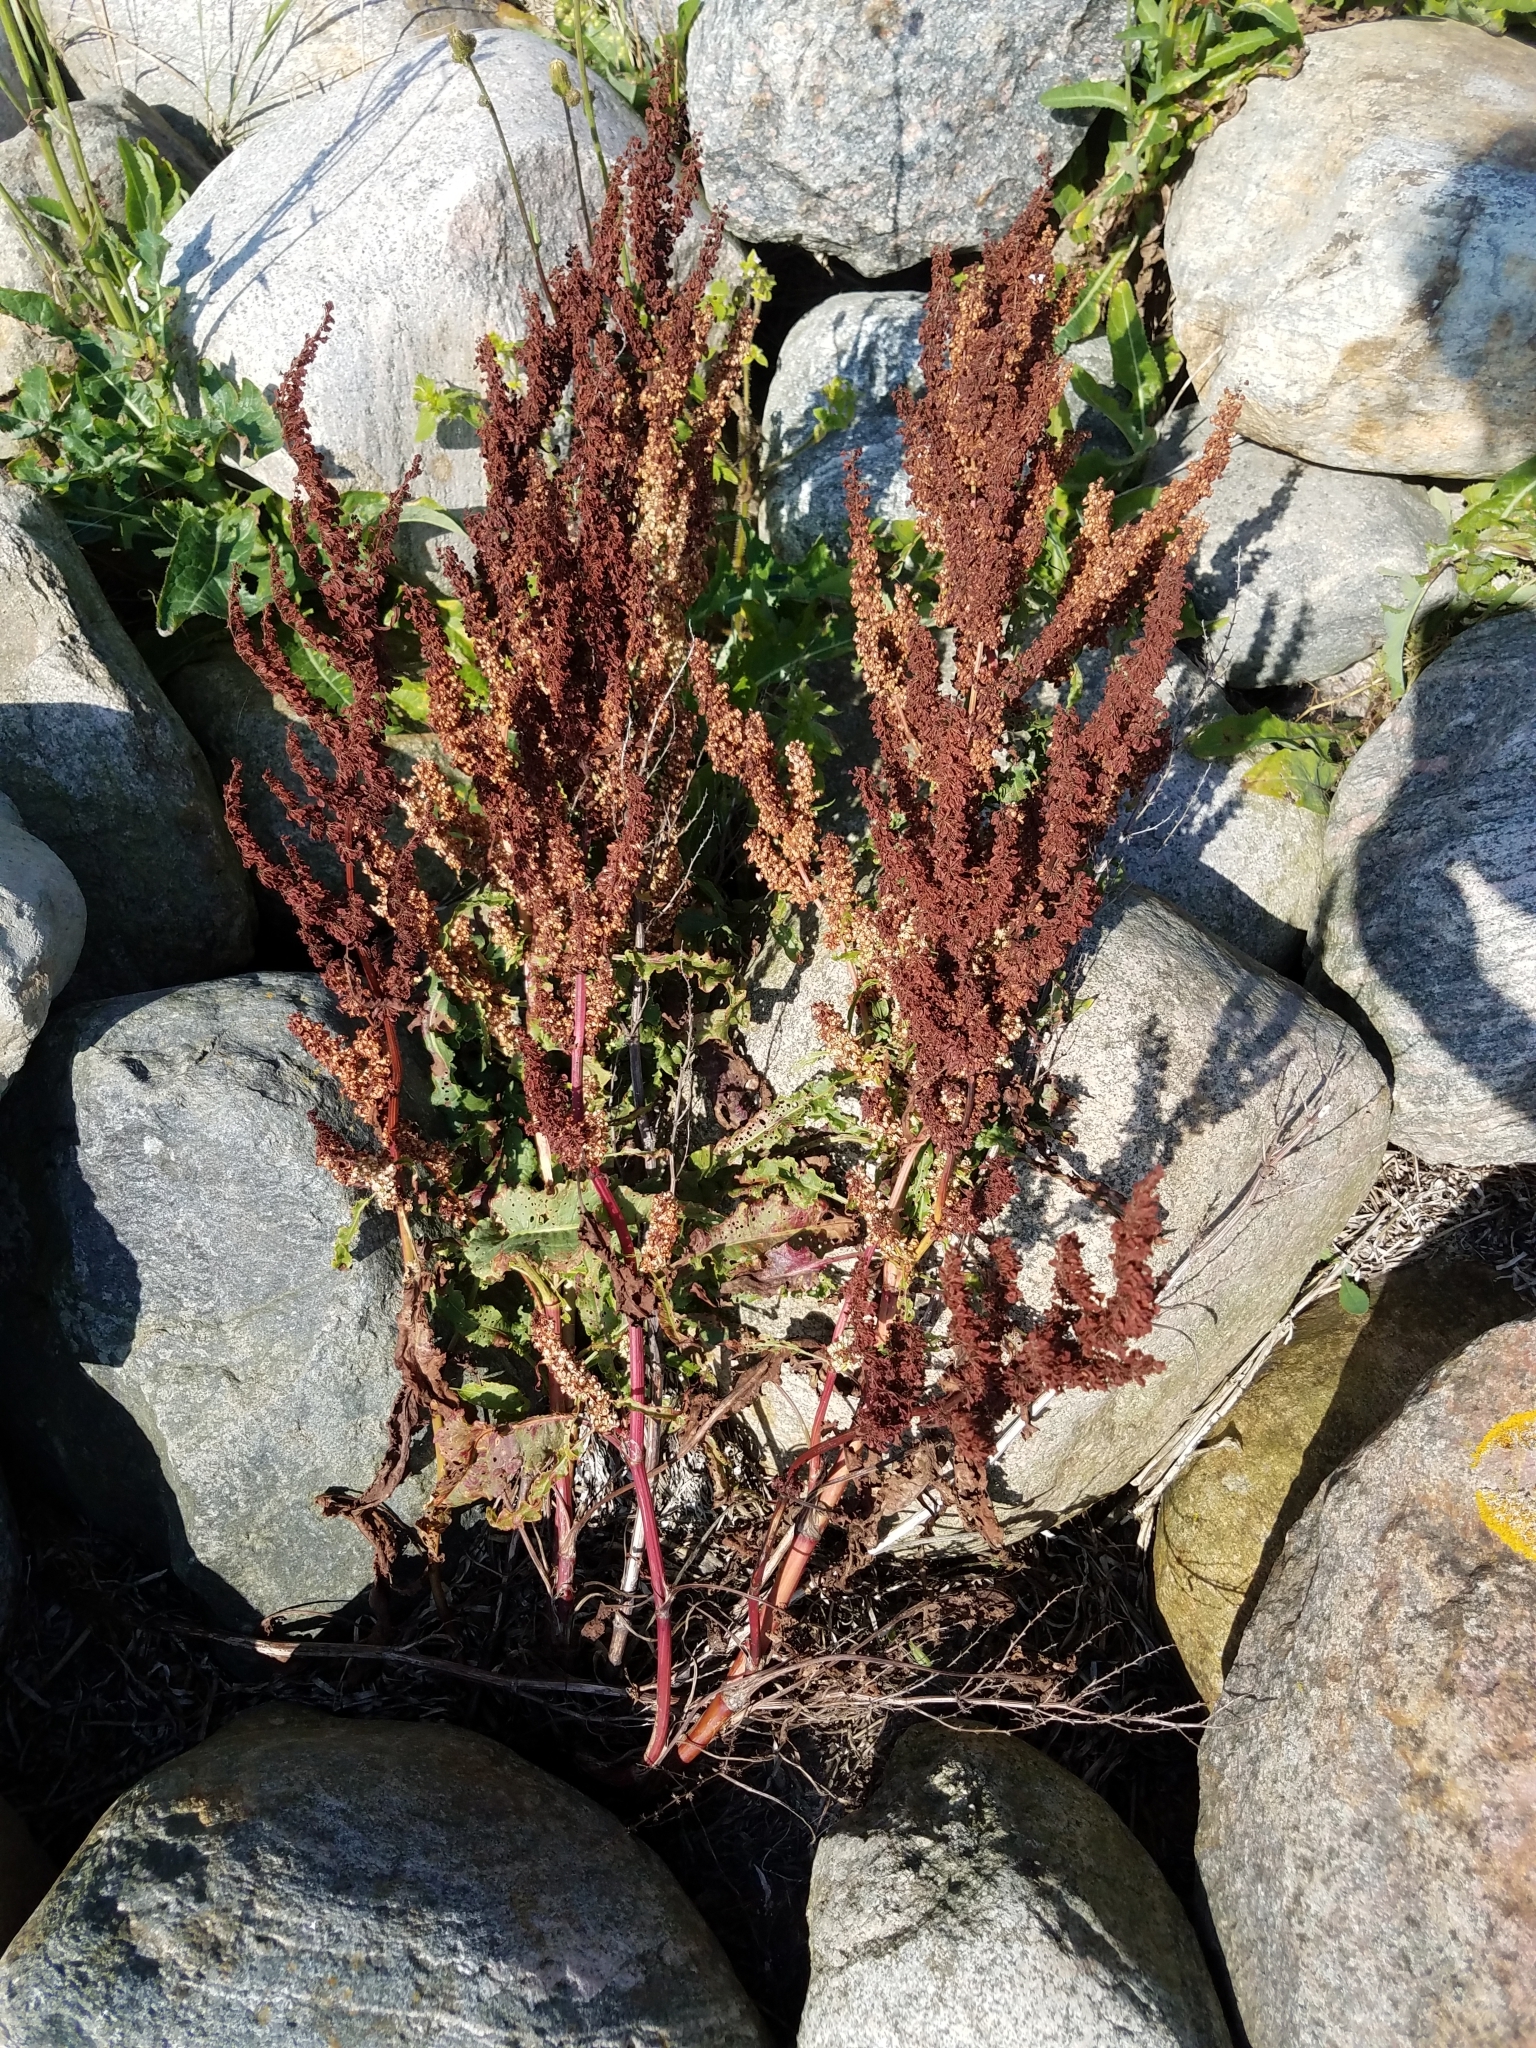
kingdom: Plantae
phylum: Tracheophyta
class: Magnoliopsida
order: Caryophyllales
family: Polygonaceae
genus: Rumex
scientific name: Rumex crispus
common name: Curled dock
